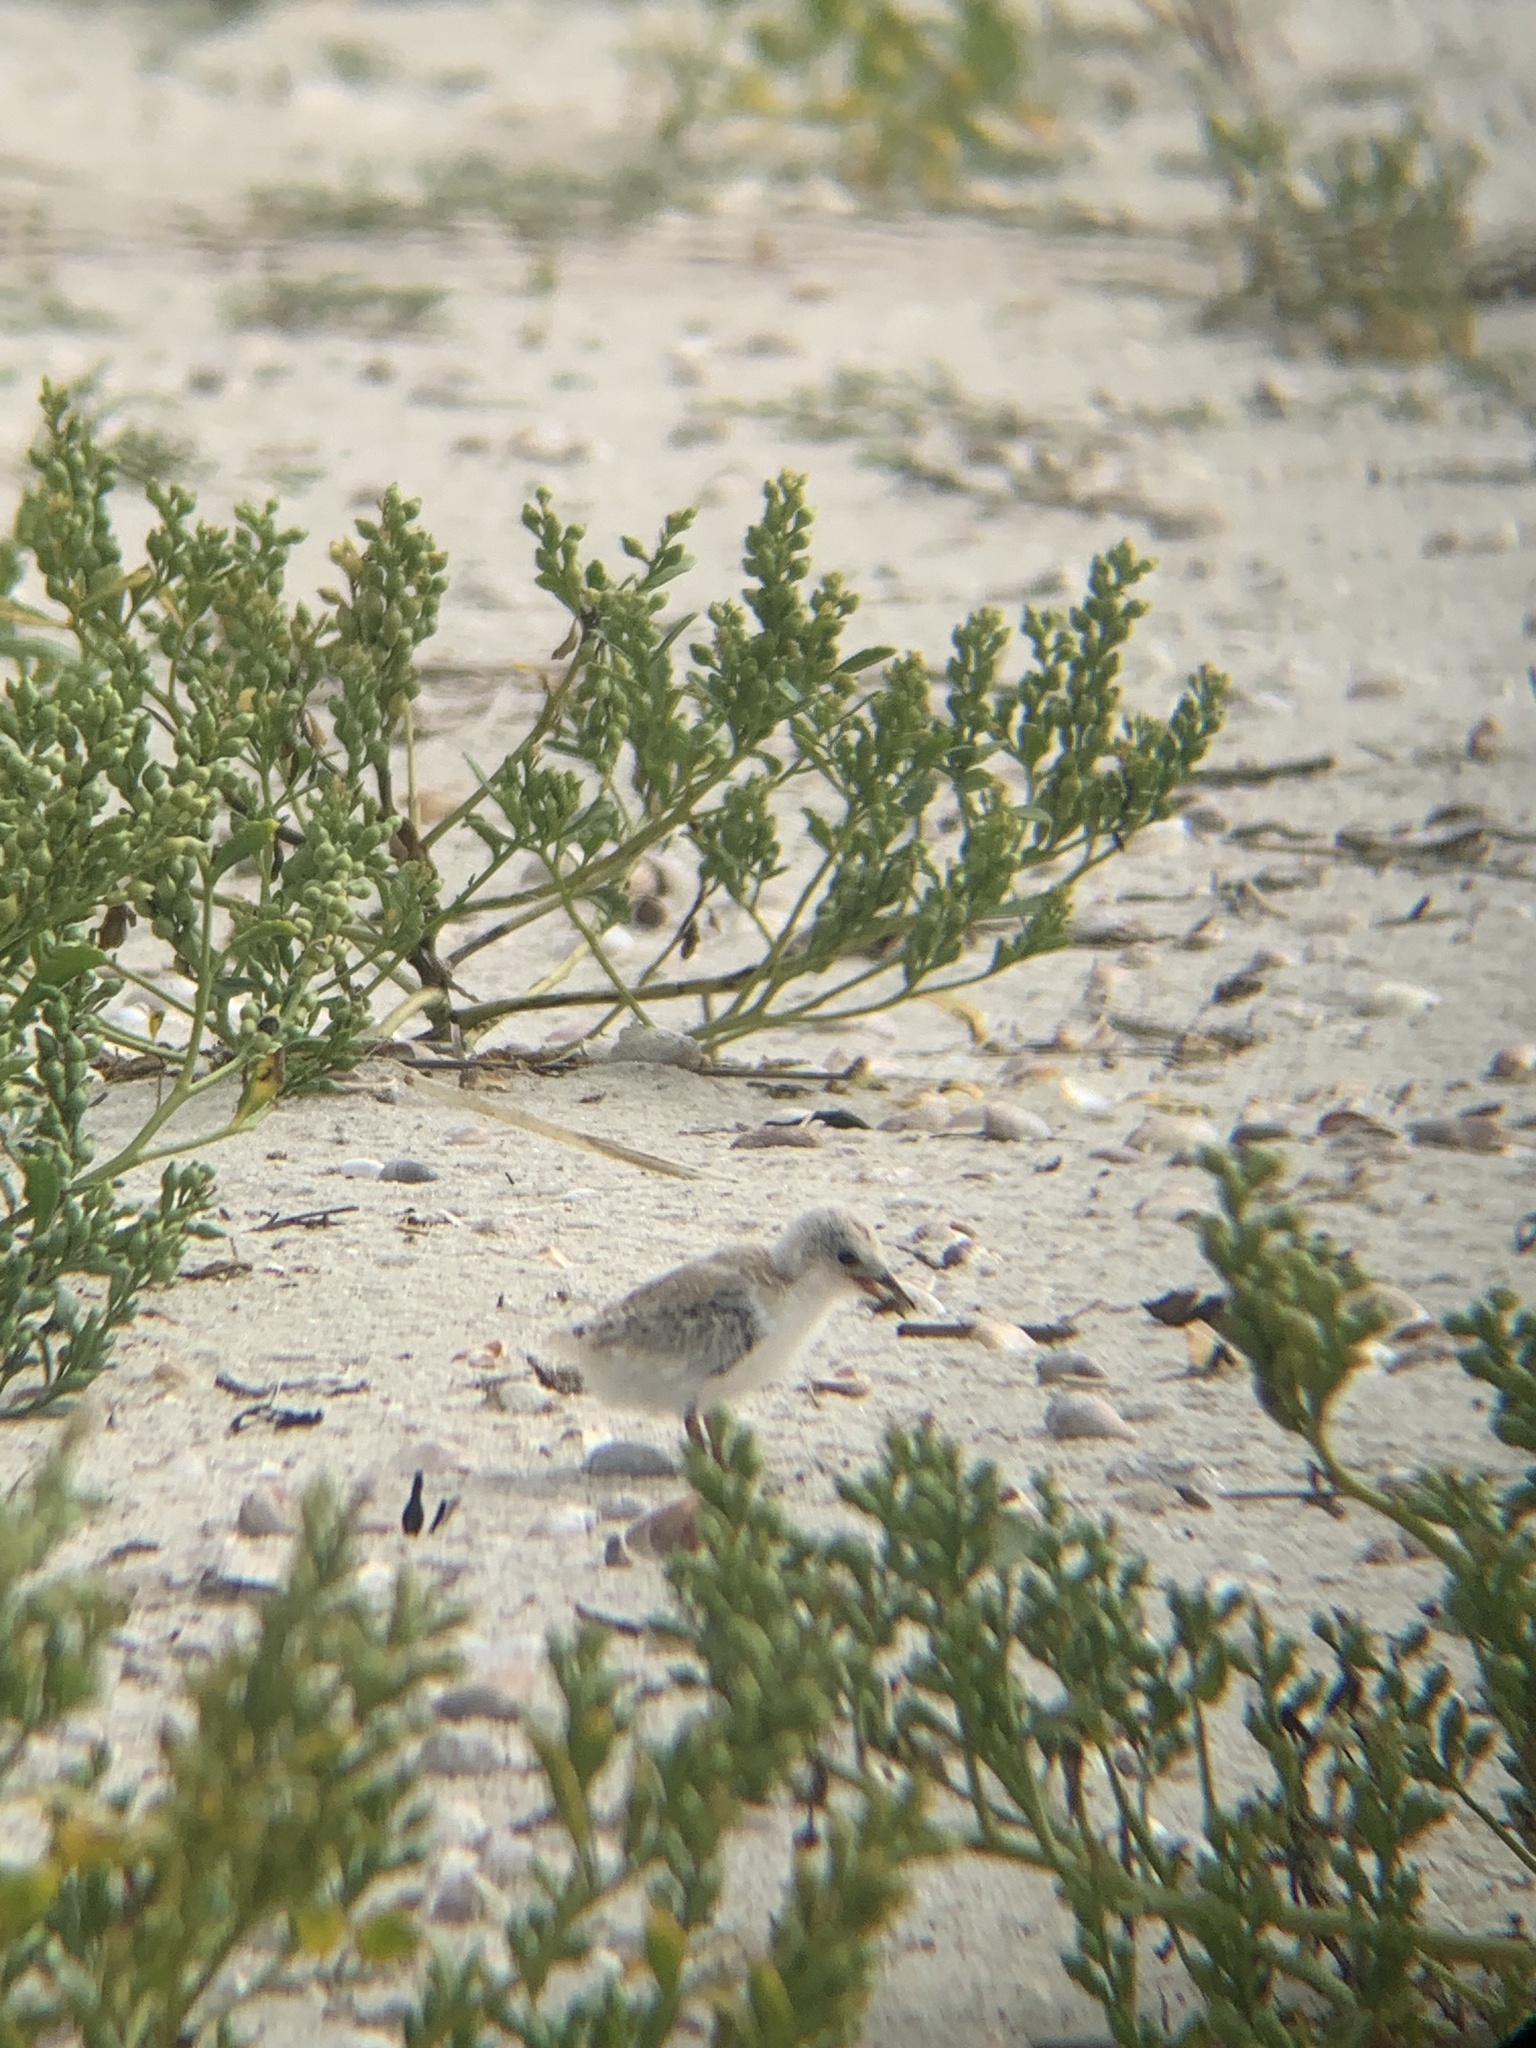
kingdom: Animalia
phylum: Chordata
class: Aves
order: Charadriiformes
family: Laridae
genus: Sternula
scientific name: Sternula antillarum
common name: Least tern
